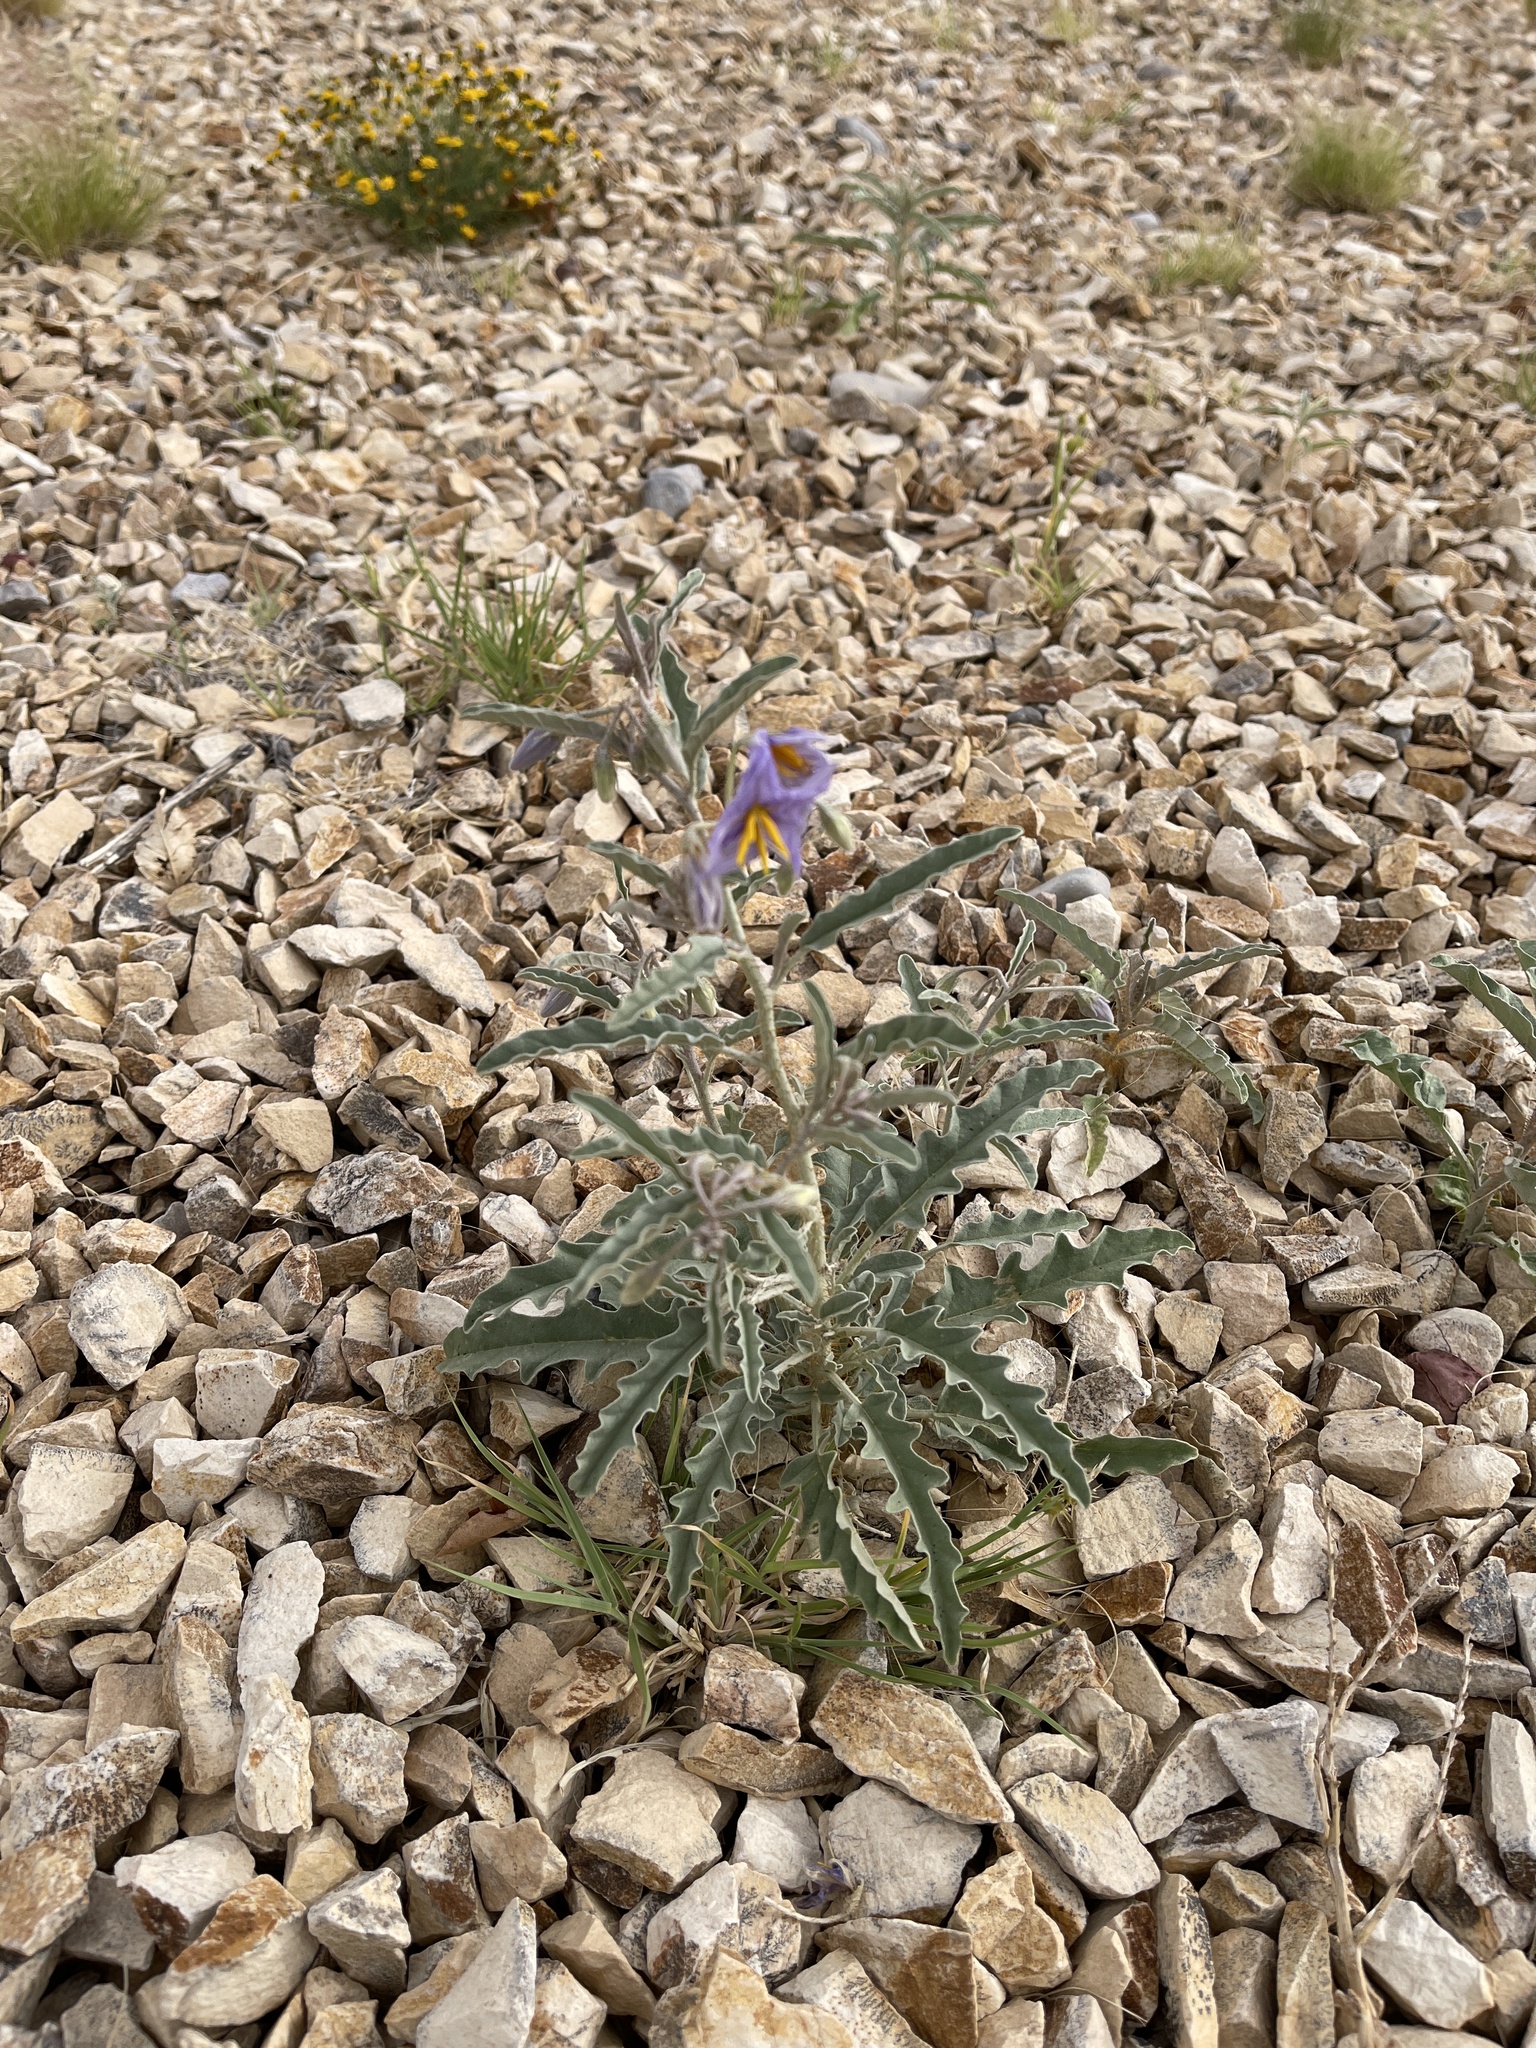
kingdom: Plantae
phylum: Tracheophyta
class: Magnoliopsida
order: Solanales
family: Solanaceae
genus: Solanum
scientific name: Solanum elaeagnifolium
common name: Silverleaf nightshade
